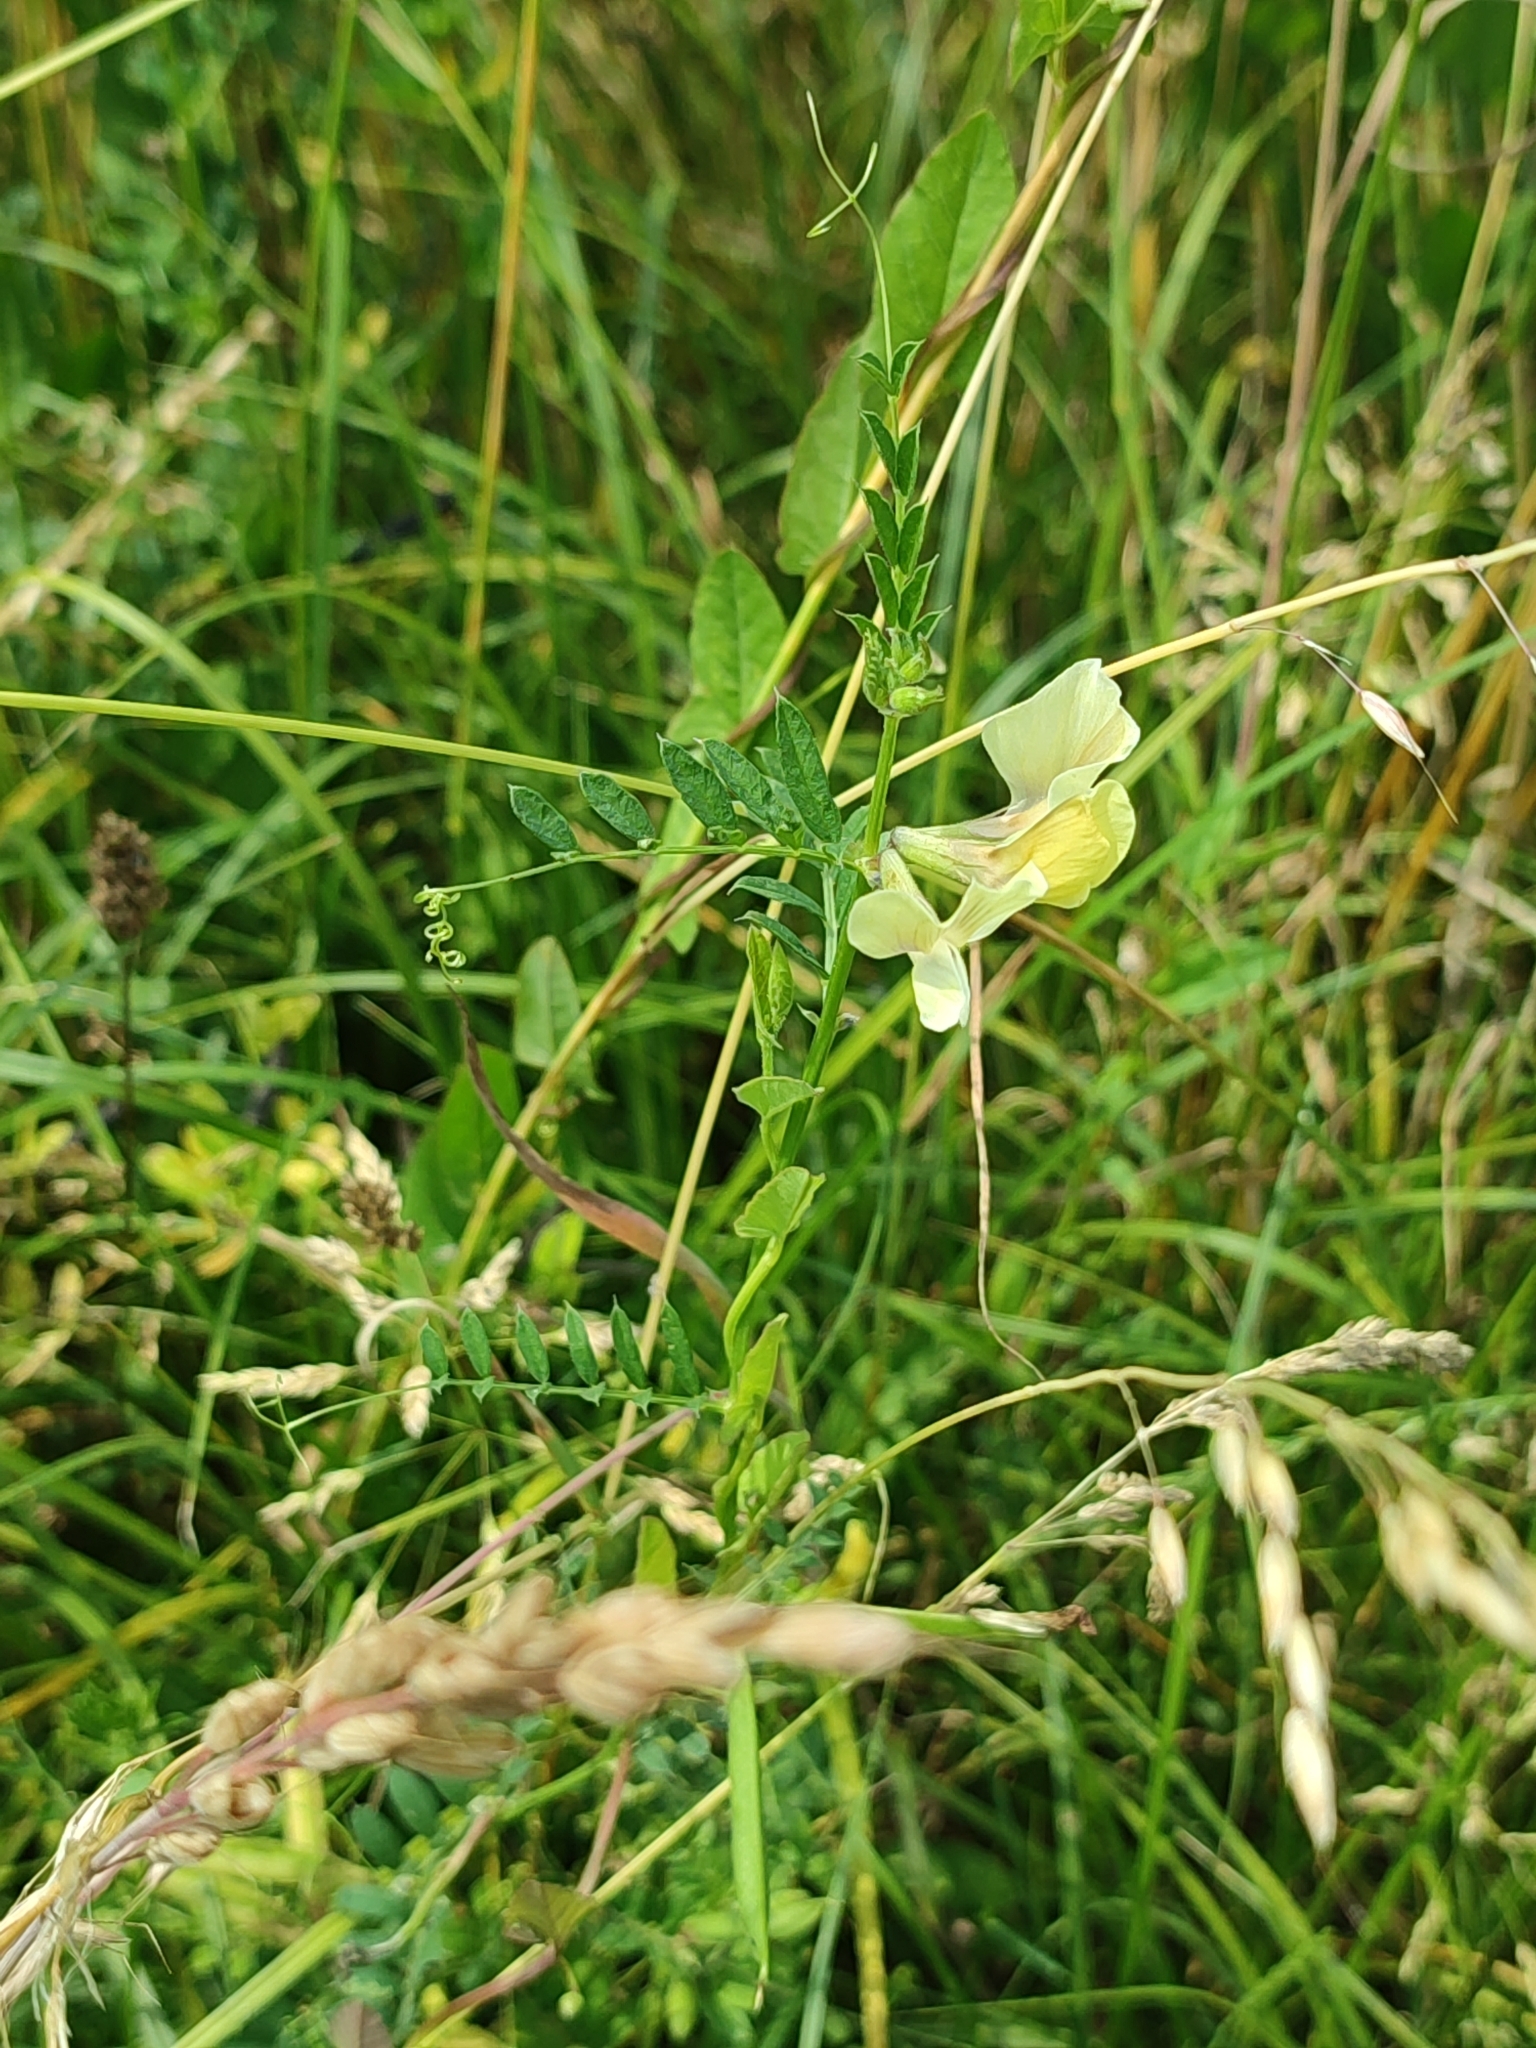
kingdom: Plantae
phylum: Tracheophyta
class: Magnoliopsida
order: Fabales
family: Fabaceae
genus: Vicia
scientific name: Vicia grandiflora
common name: Large yellow vetch
